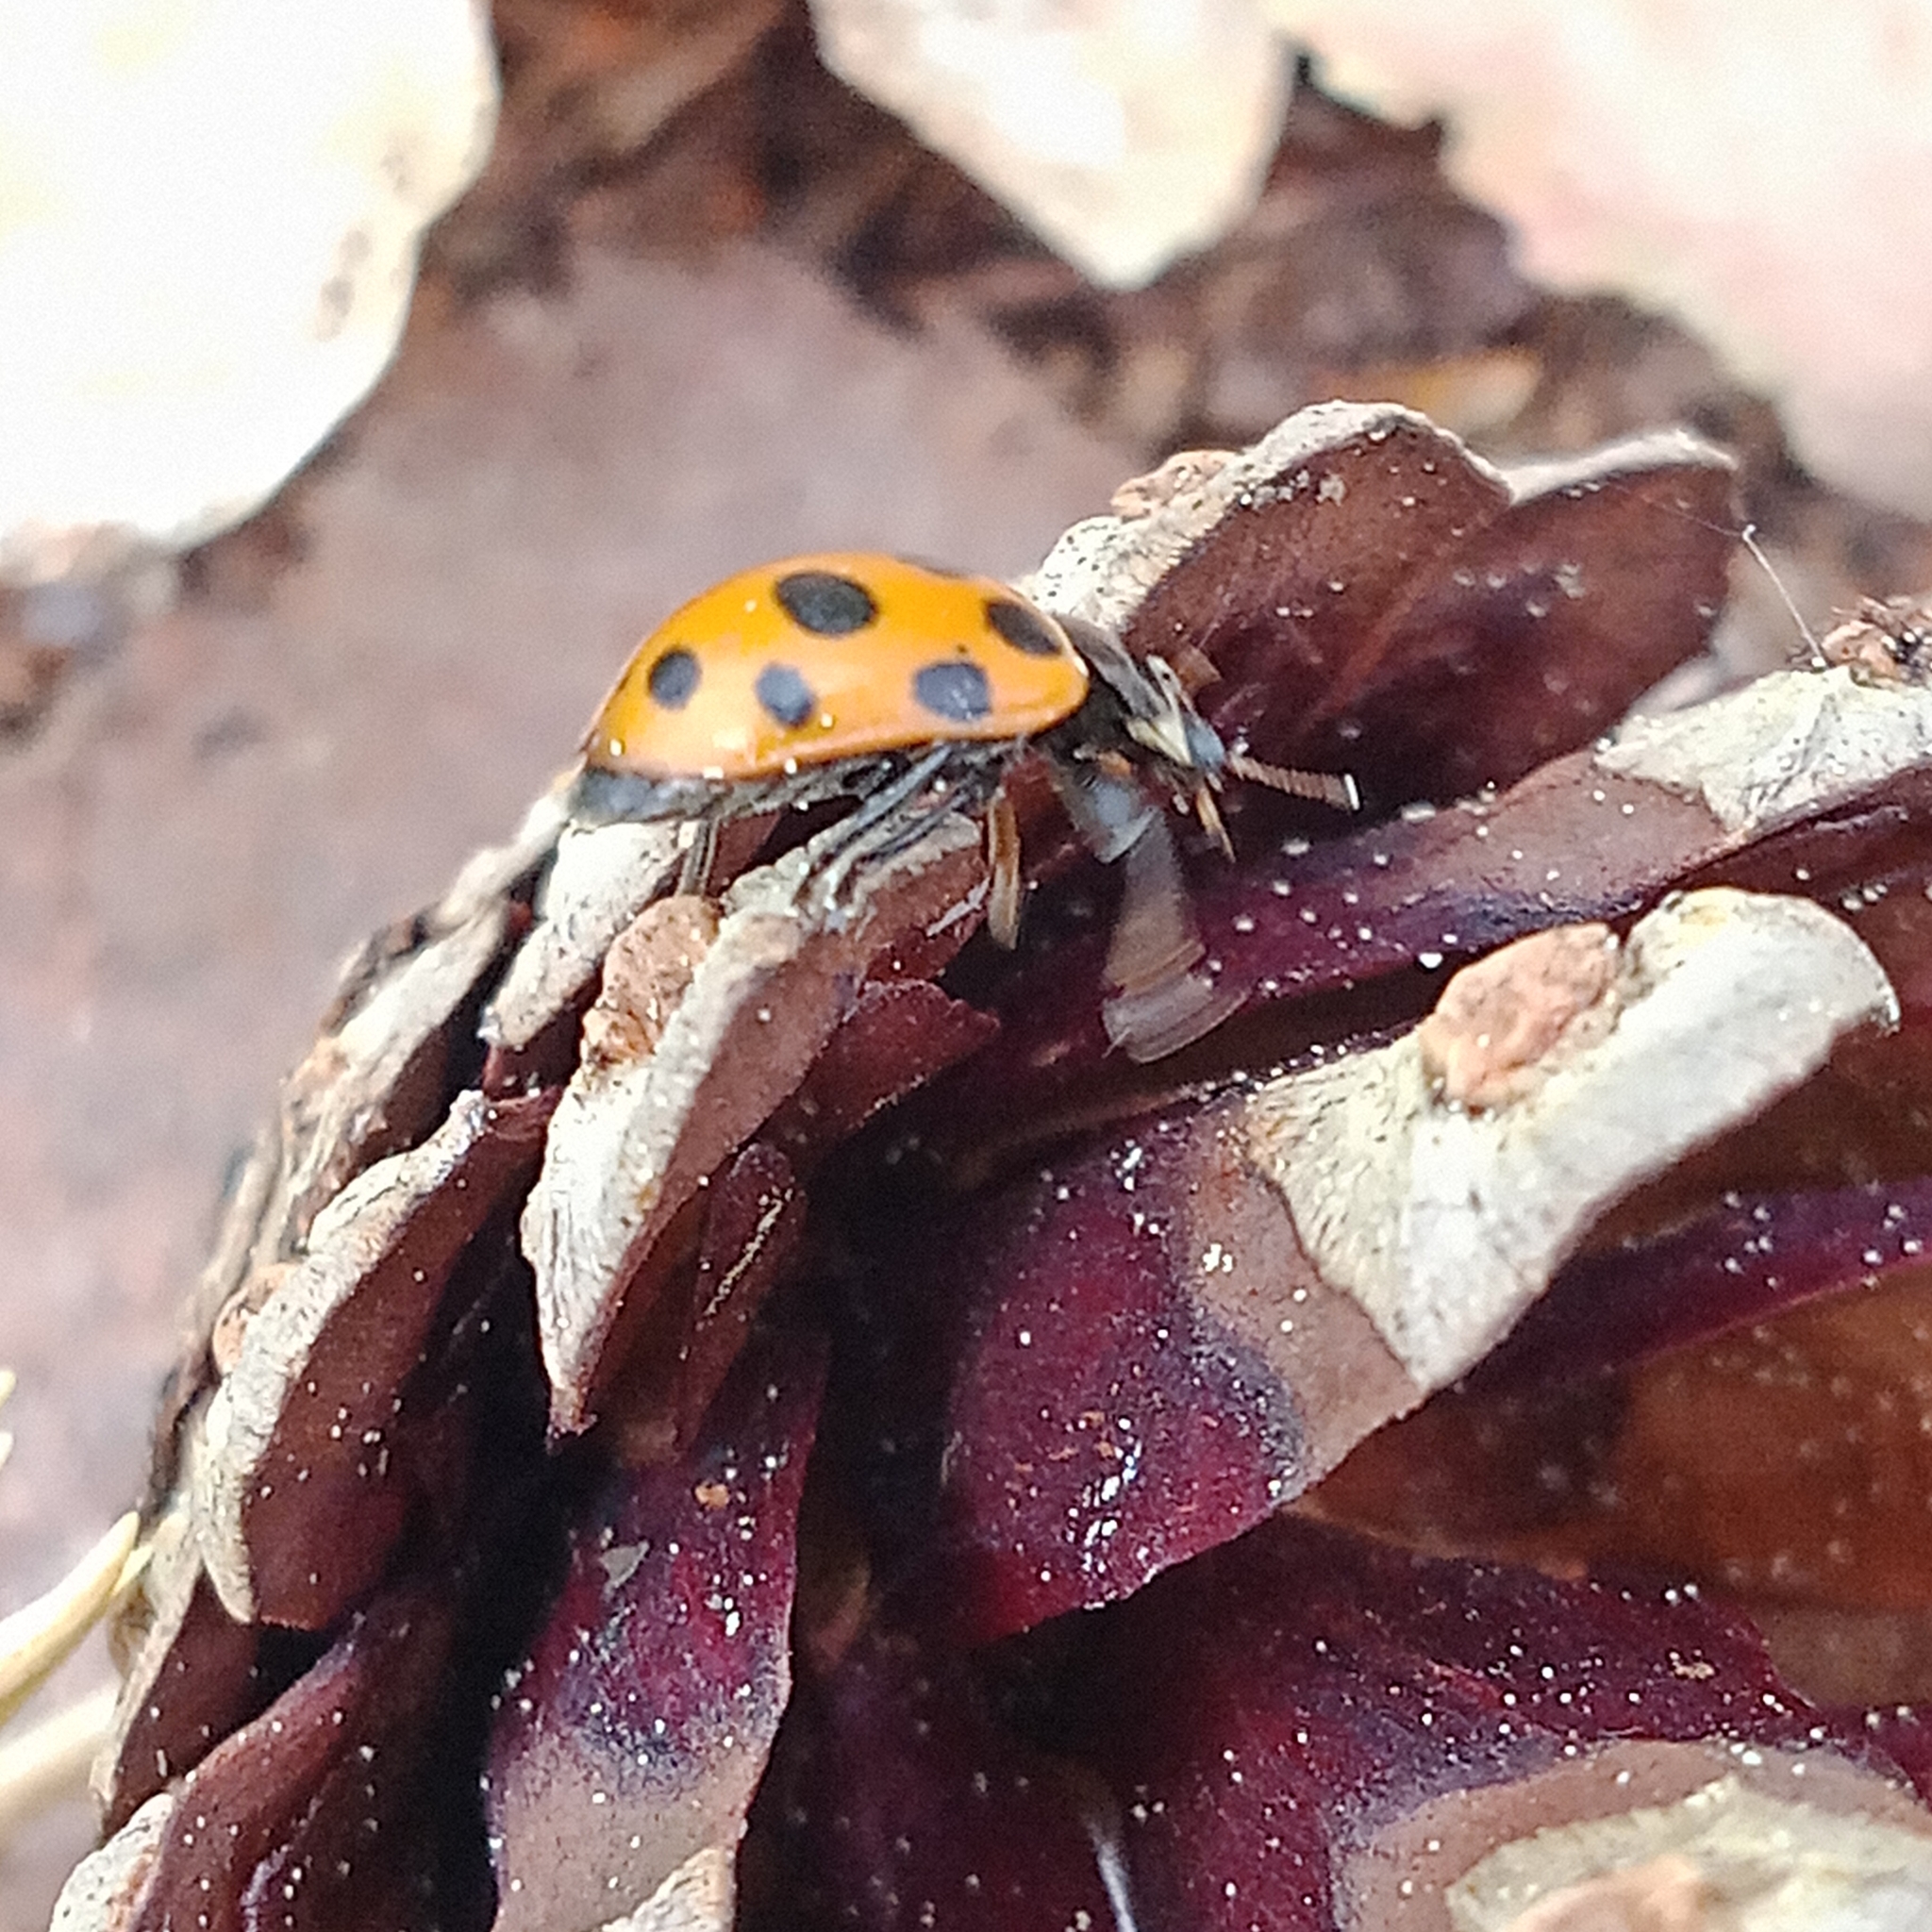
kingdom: Animalia
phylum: Arthropoda
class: Insecta
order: Coleoptera
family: Coccinellidae
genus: Ceratomegilla
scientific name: Ceratomegilla notata
